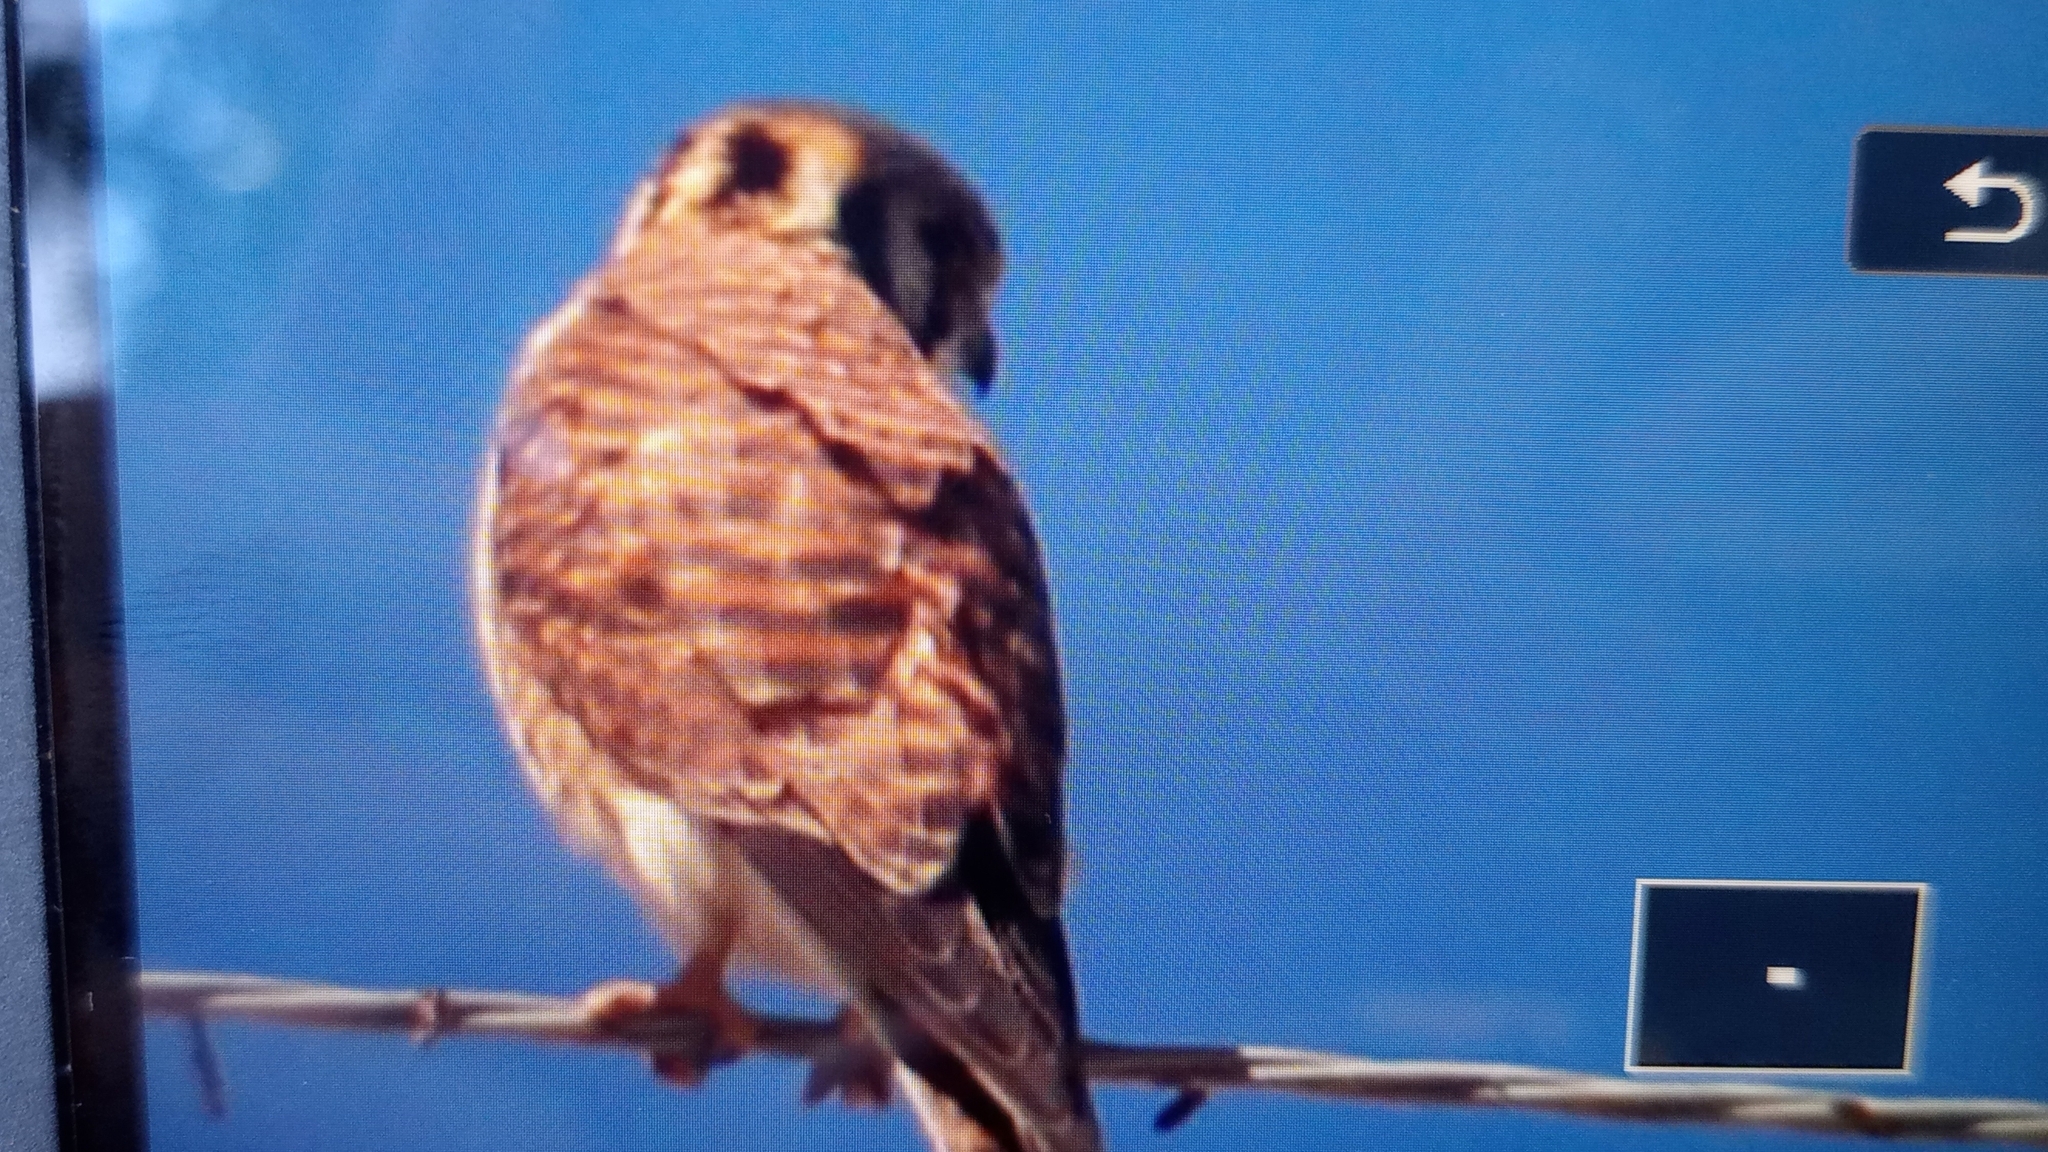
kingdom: Animalia
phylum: Chordata
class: Aves
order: Falconiformes
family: Falconidae
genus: Falco
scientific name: Falco sparverius
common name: American kestrel
